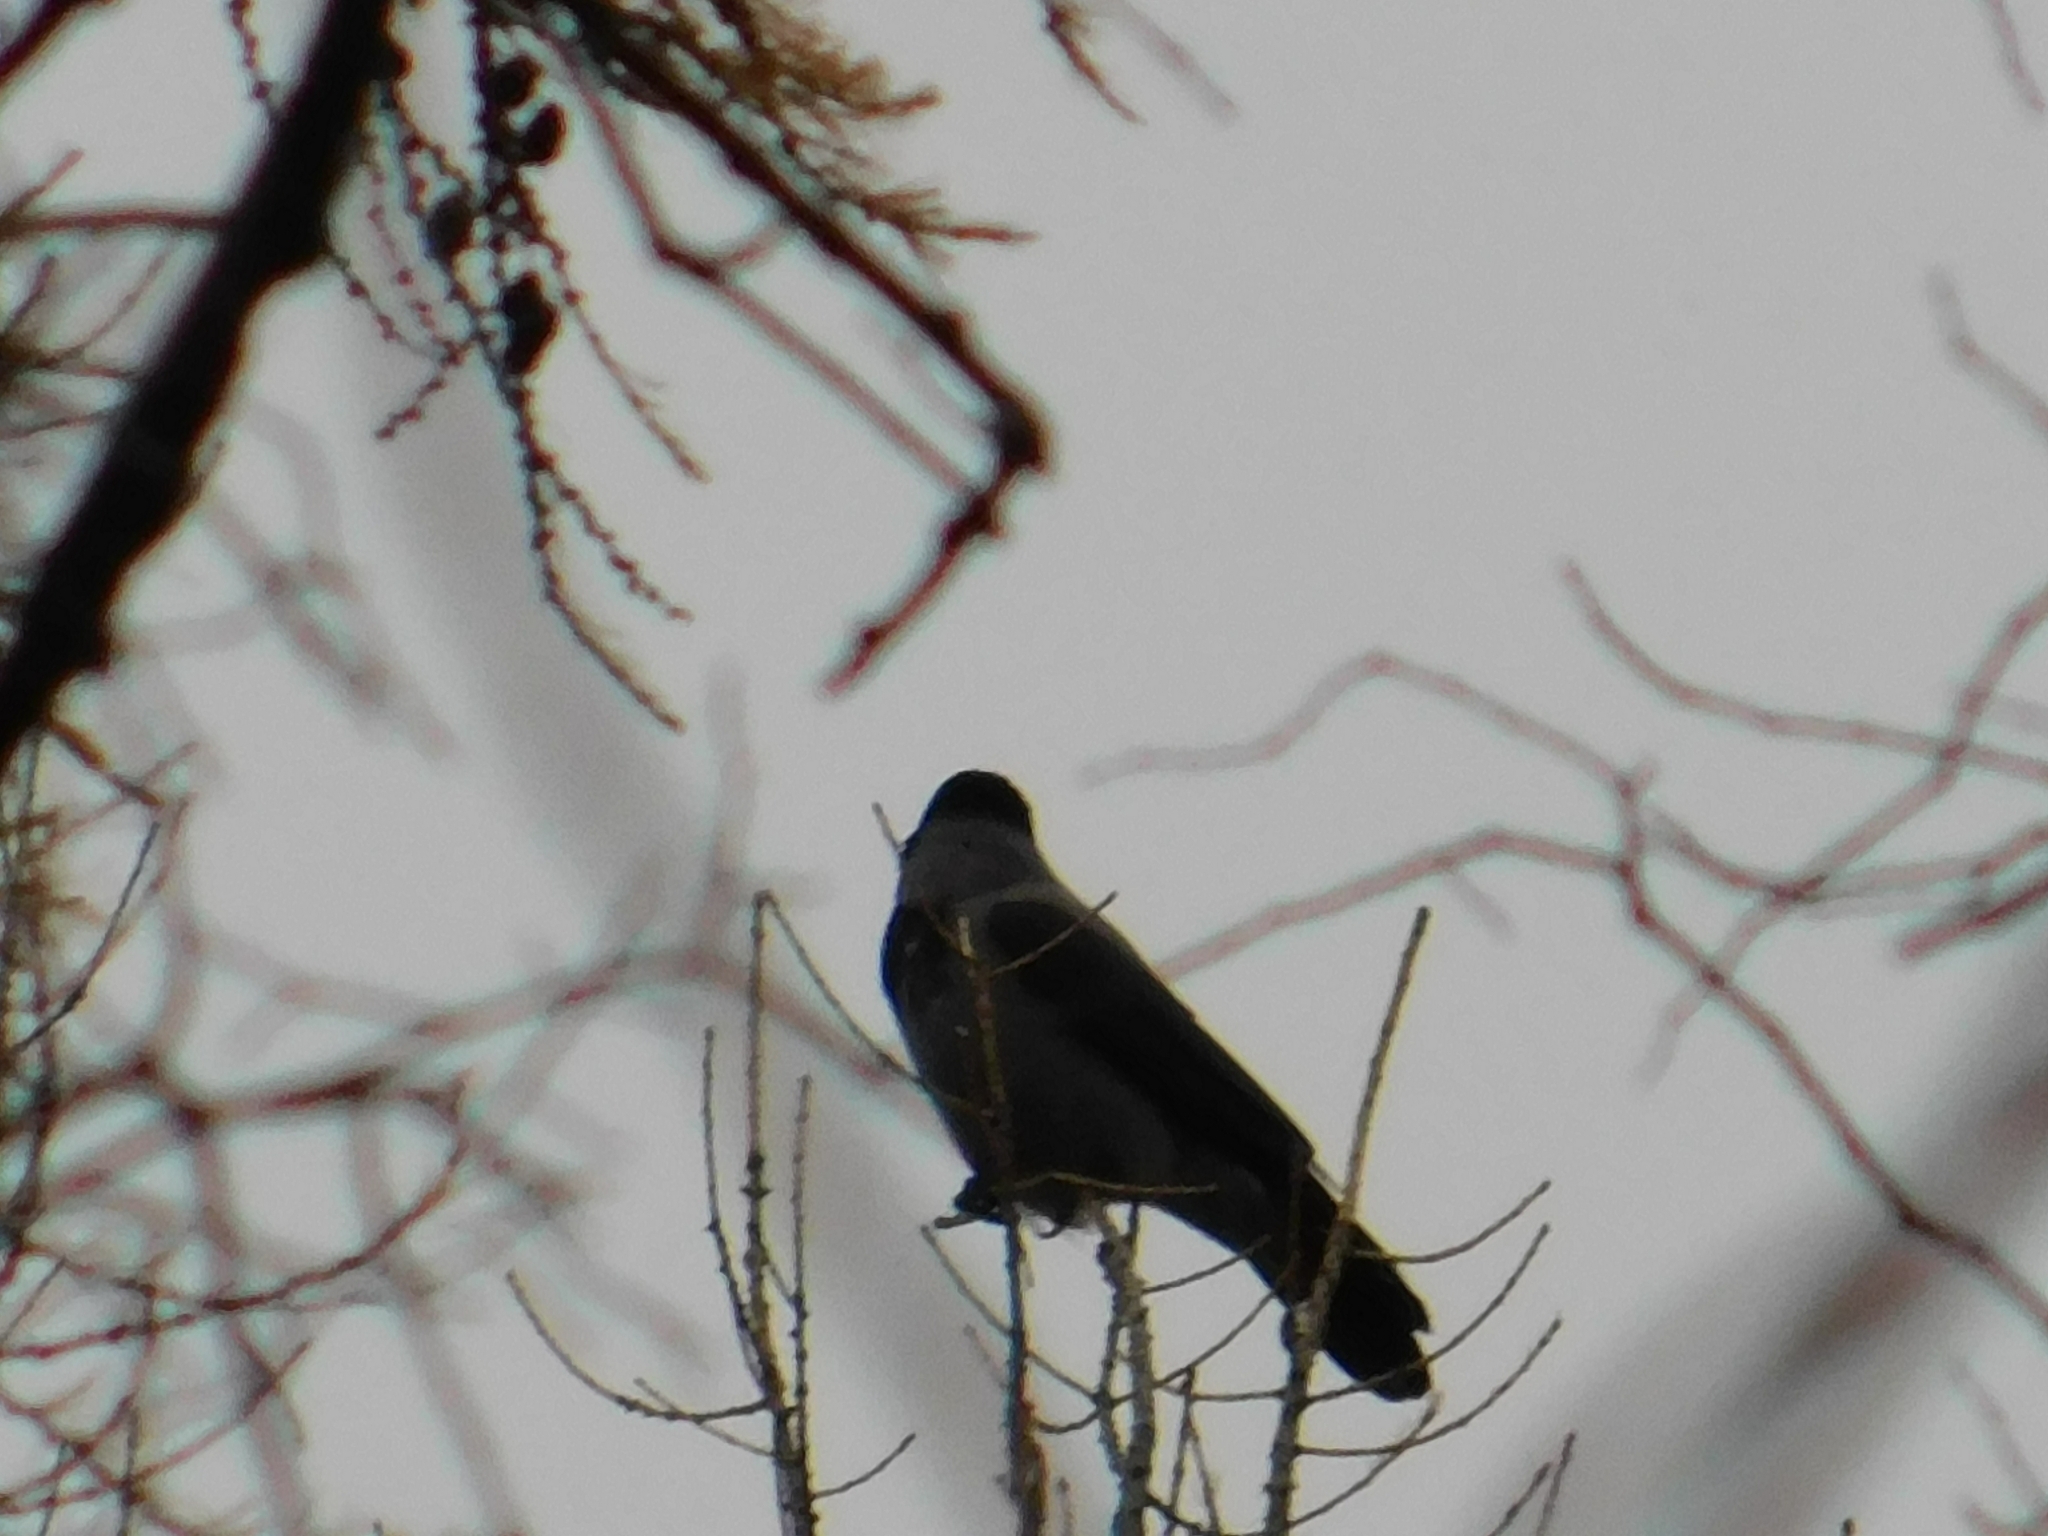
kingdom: Animalia
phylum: Chordata
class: Aves
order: Passeriformes
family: Corvidae
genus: Corvus
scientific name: Corvus cornix
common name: Hooded crow
